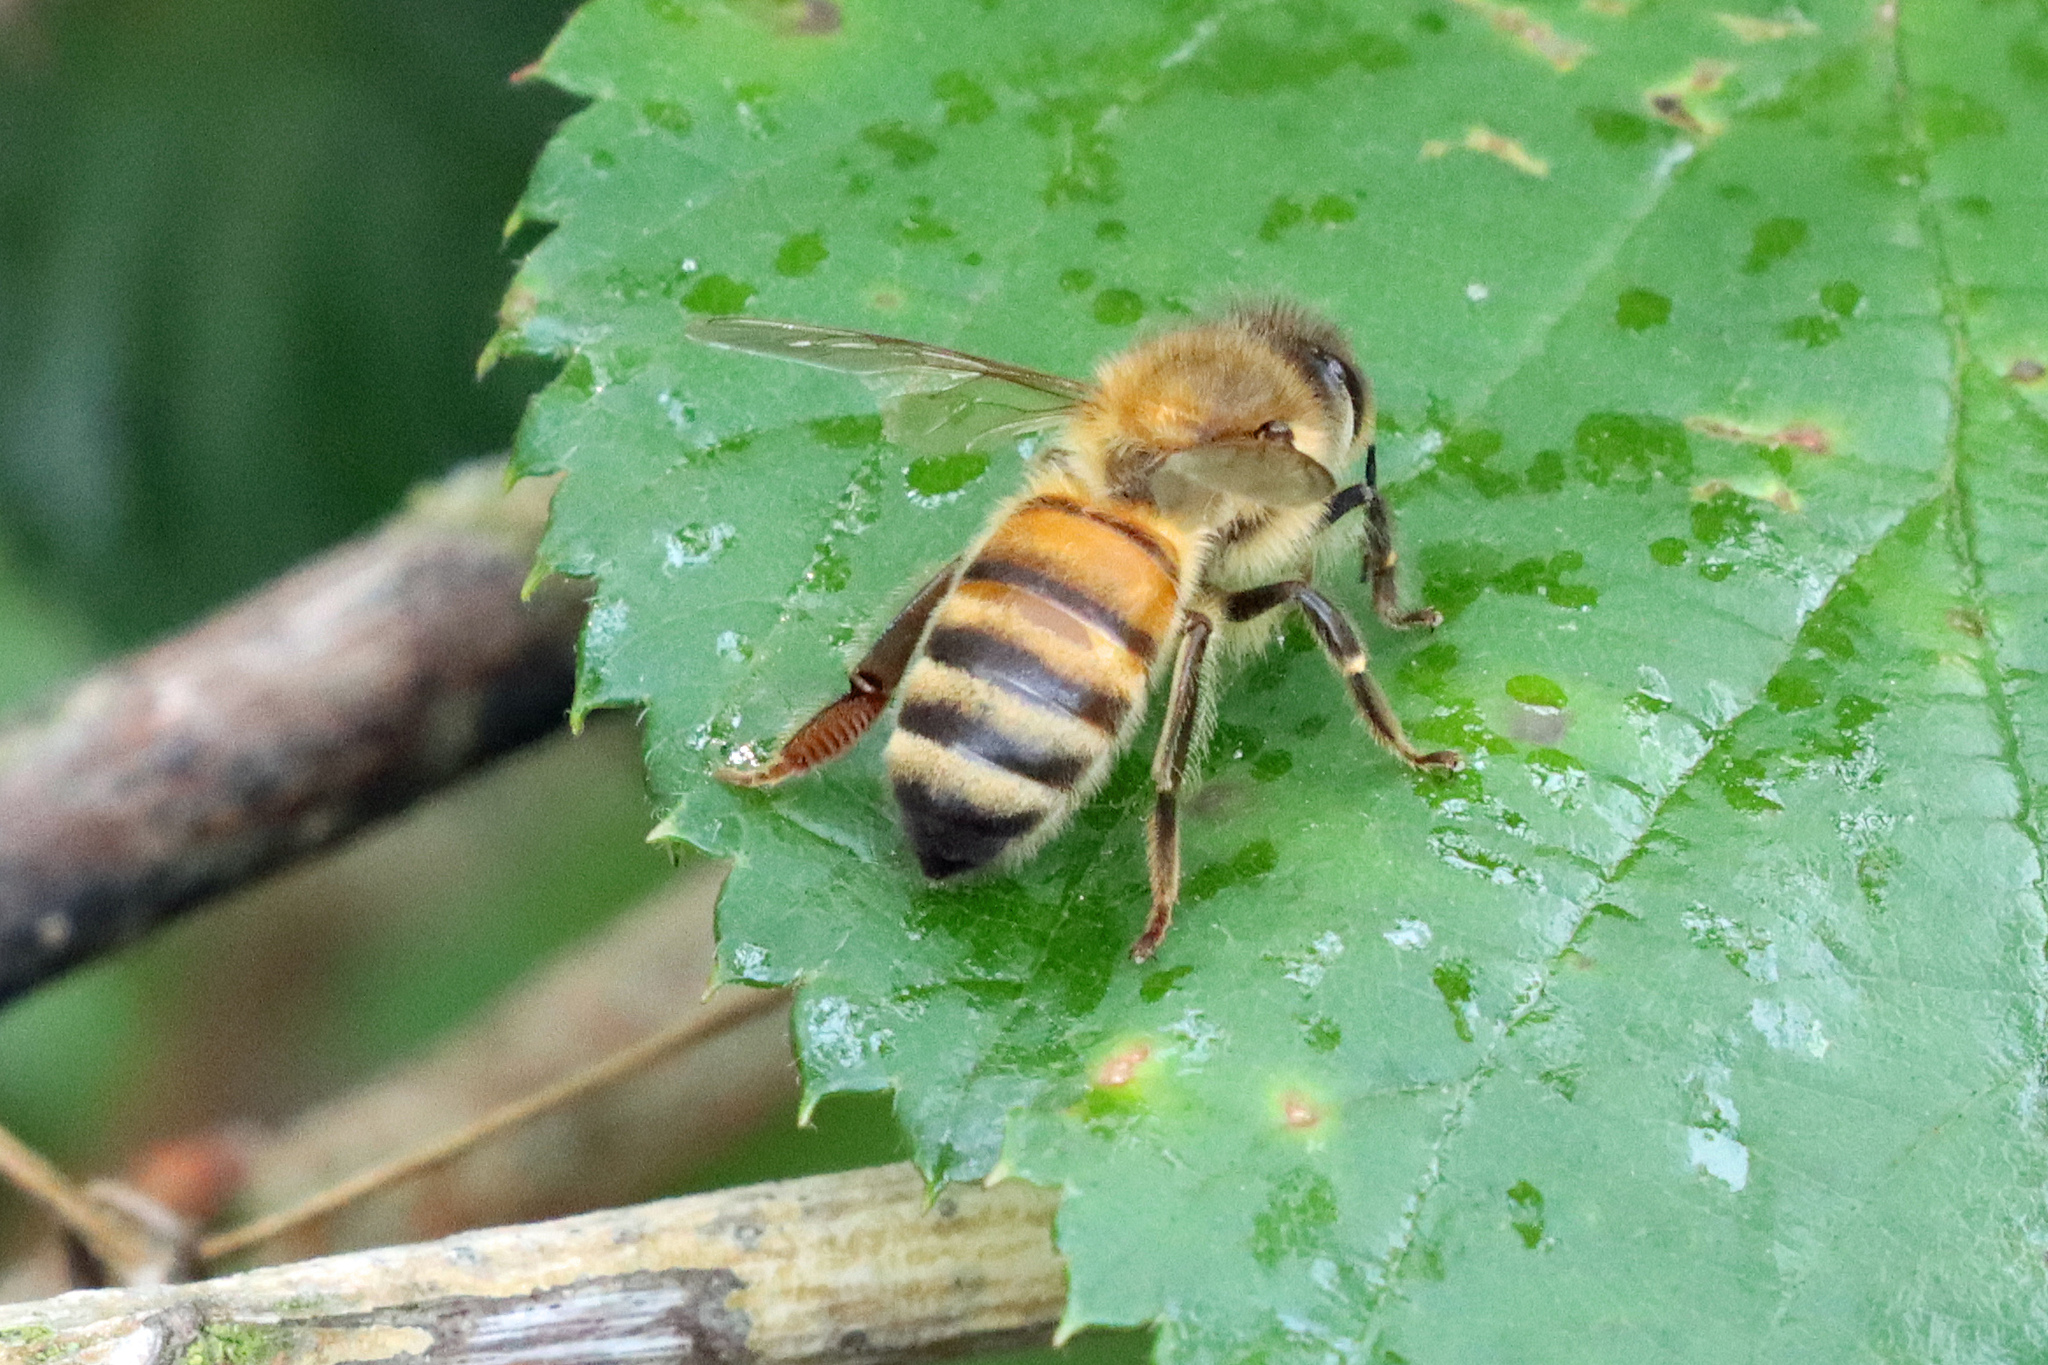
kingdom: Animalia
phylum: Arthropoda
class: Insecta
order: Hymenoptera
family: Apidae
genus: Apis
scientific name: Apis mellifera
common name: Honey bee
